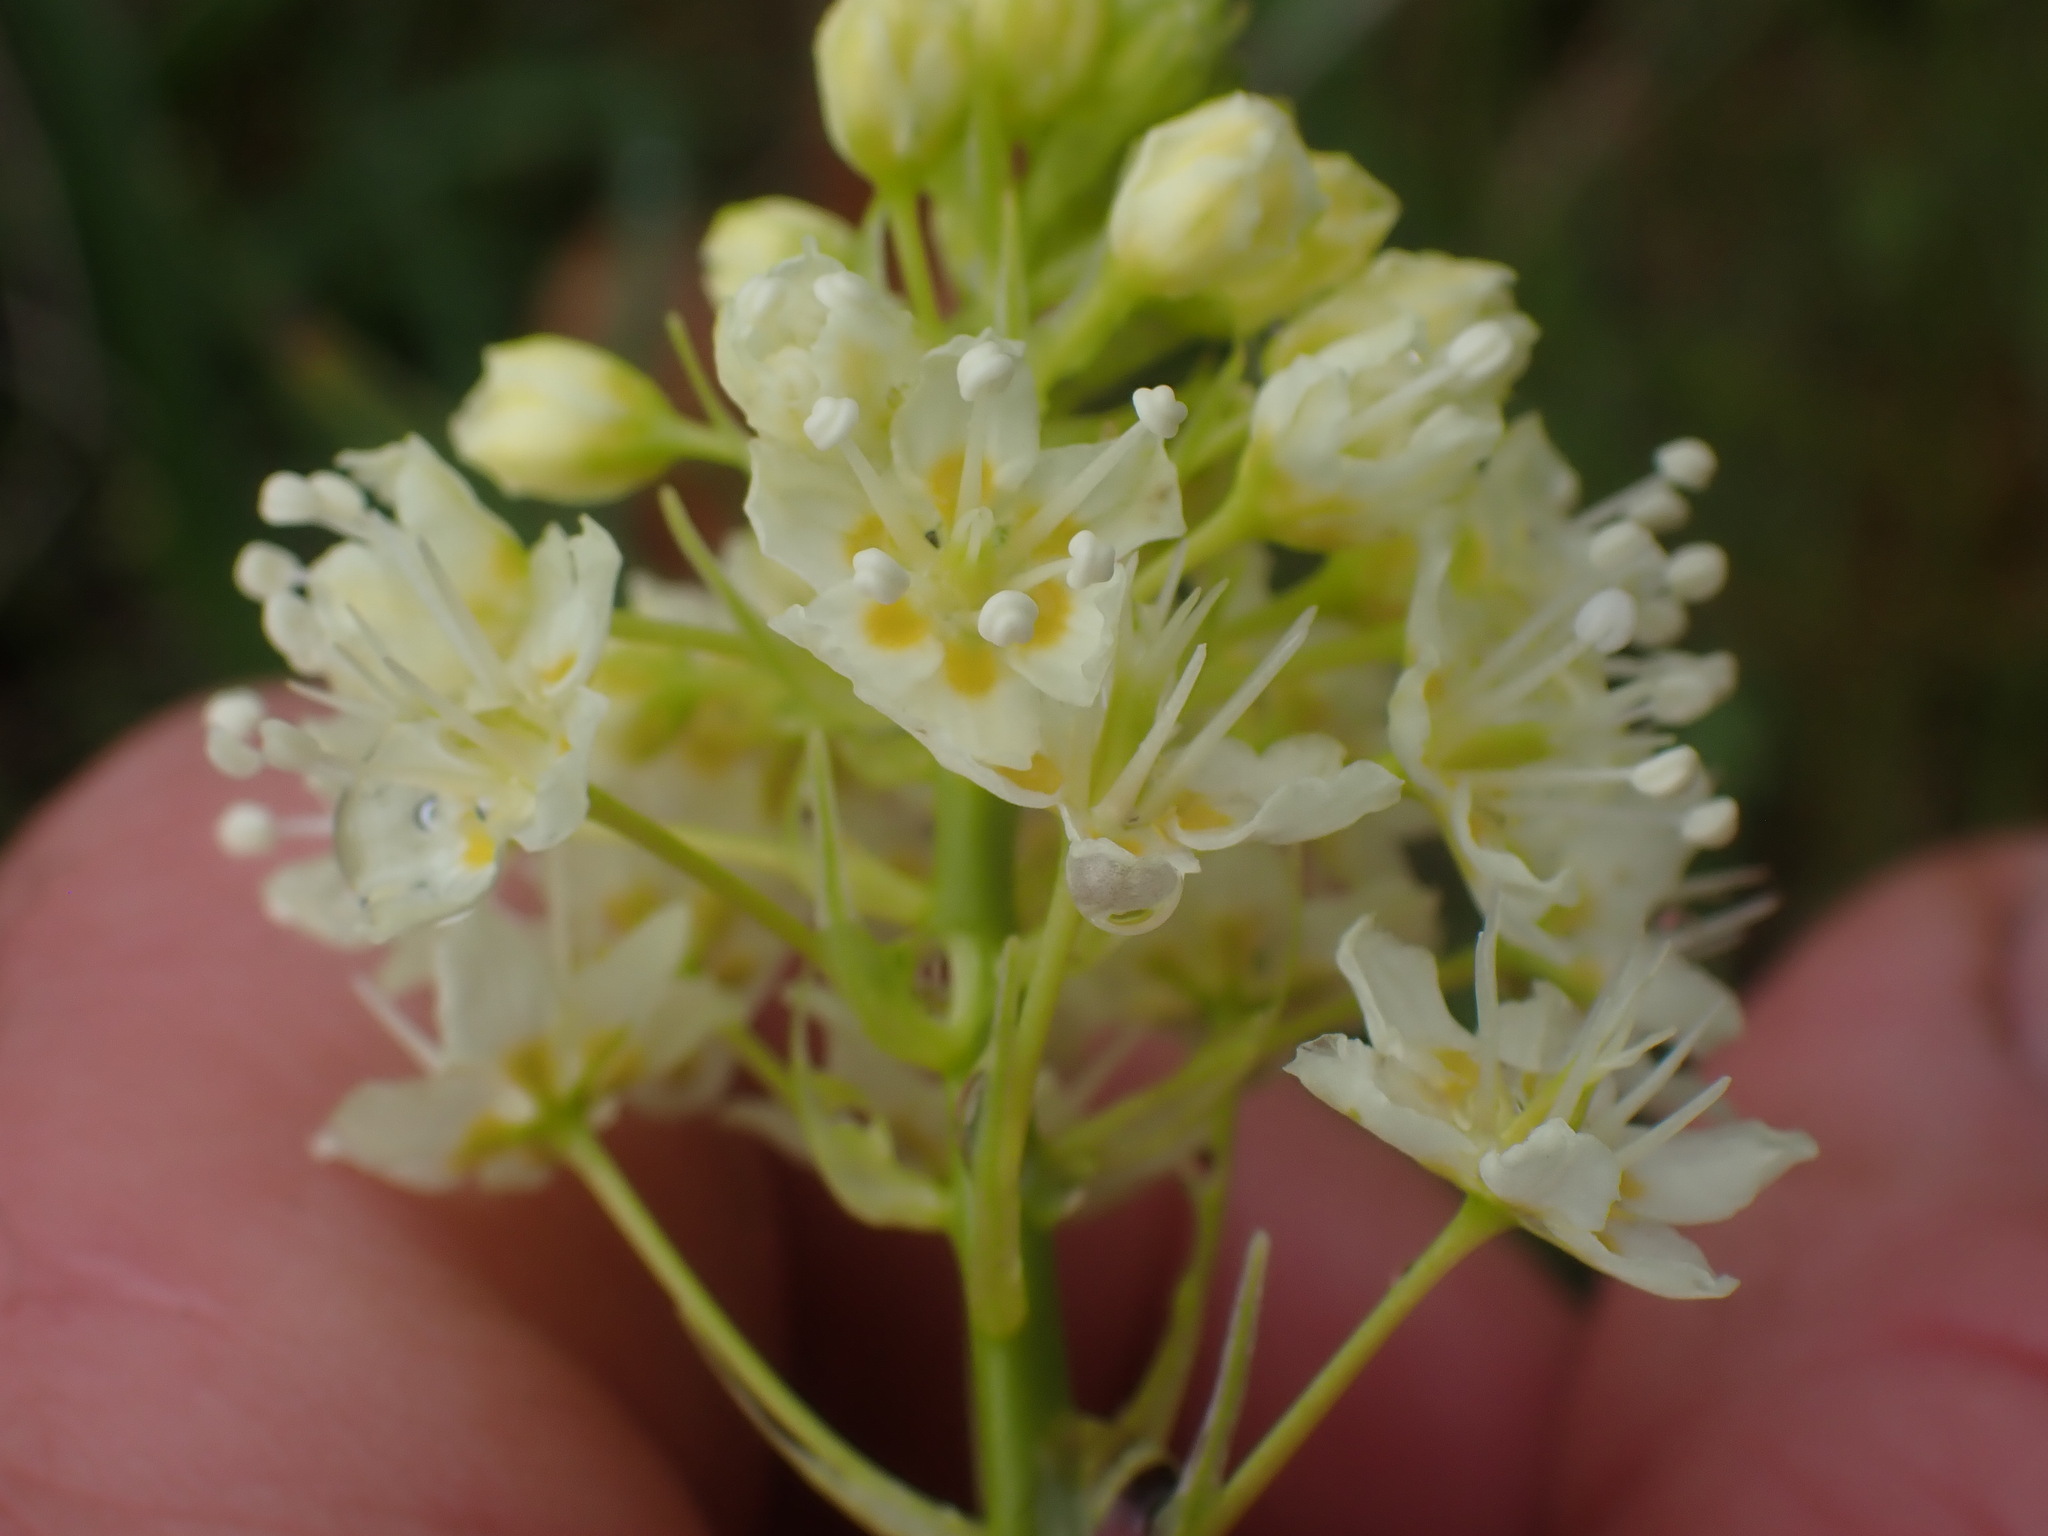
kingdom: Plantae
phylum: Tracheophyta
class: Liliopsida
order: Liliales
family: Melanthiaceae
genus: Toxicoscordion
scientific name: Toxicoscordion venenosum
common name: Meadow death camas
